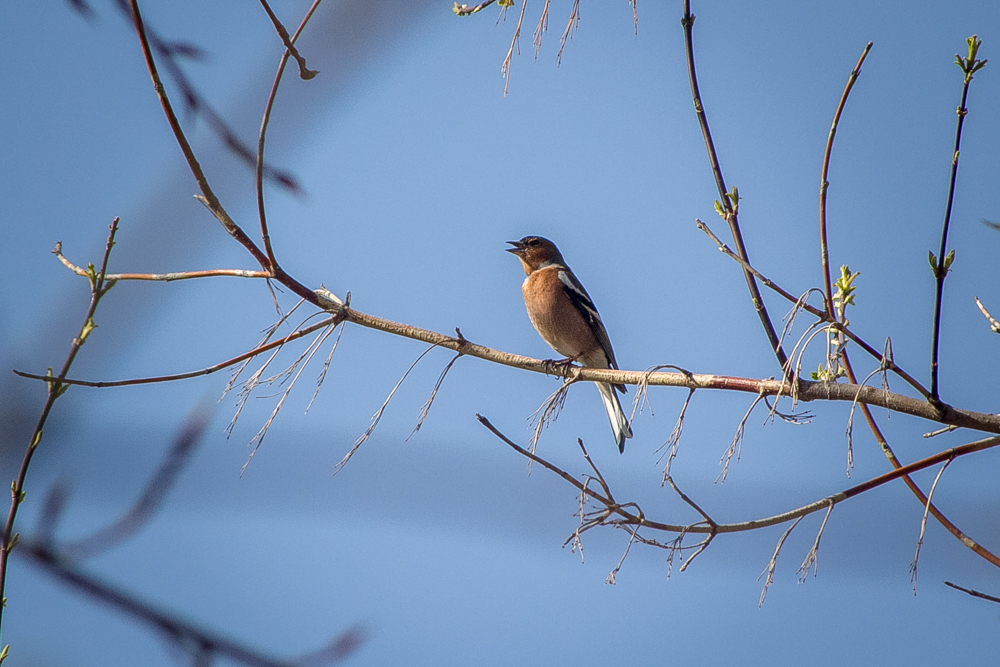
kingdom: Animalia
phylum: Chordata
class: Aves
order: Passeriformes
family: Fringillidae
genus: Fringilla
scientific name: Fringilla coelebs
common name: Common chaffinch
